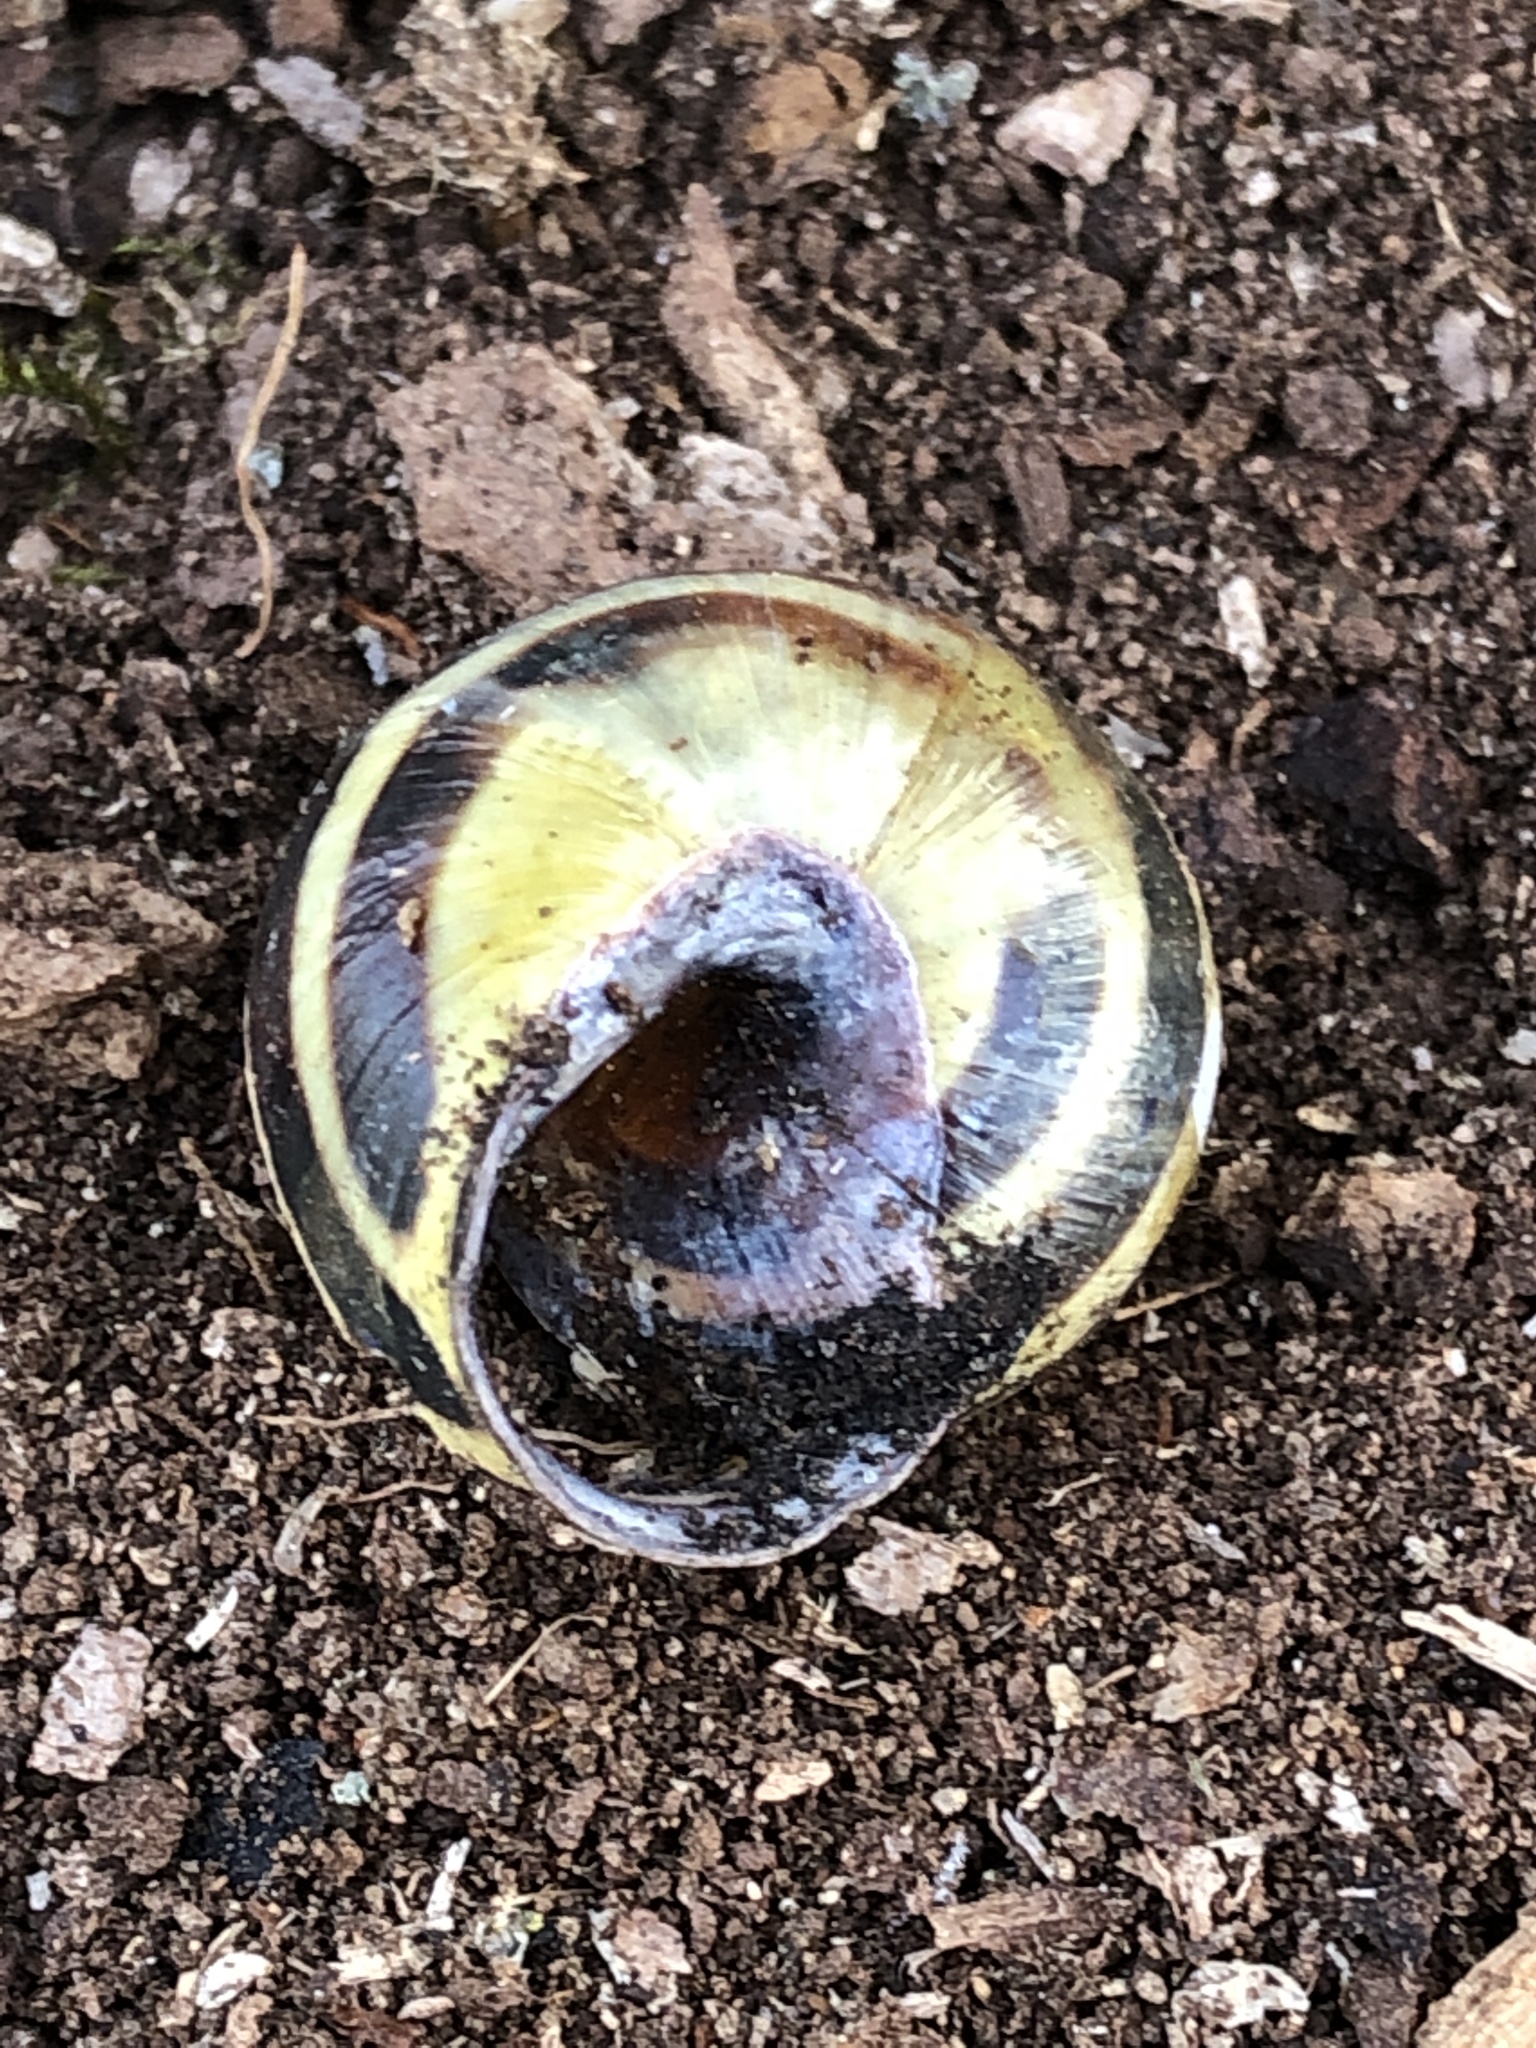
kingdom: Animalia
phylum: Mollusca
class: Gastropoda
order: Stylommatophora
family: Helicidae
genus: Cepaea
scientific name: Cepaea nemoralis
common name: Grovesnail
